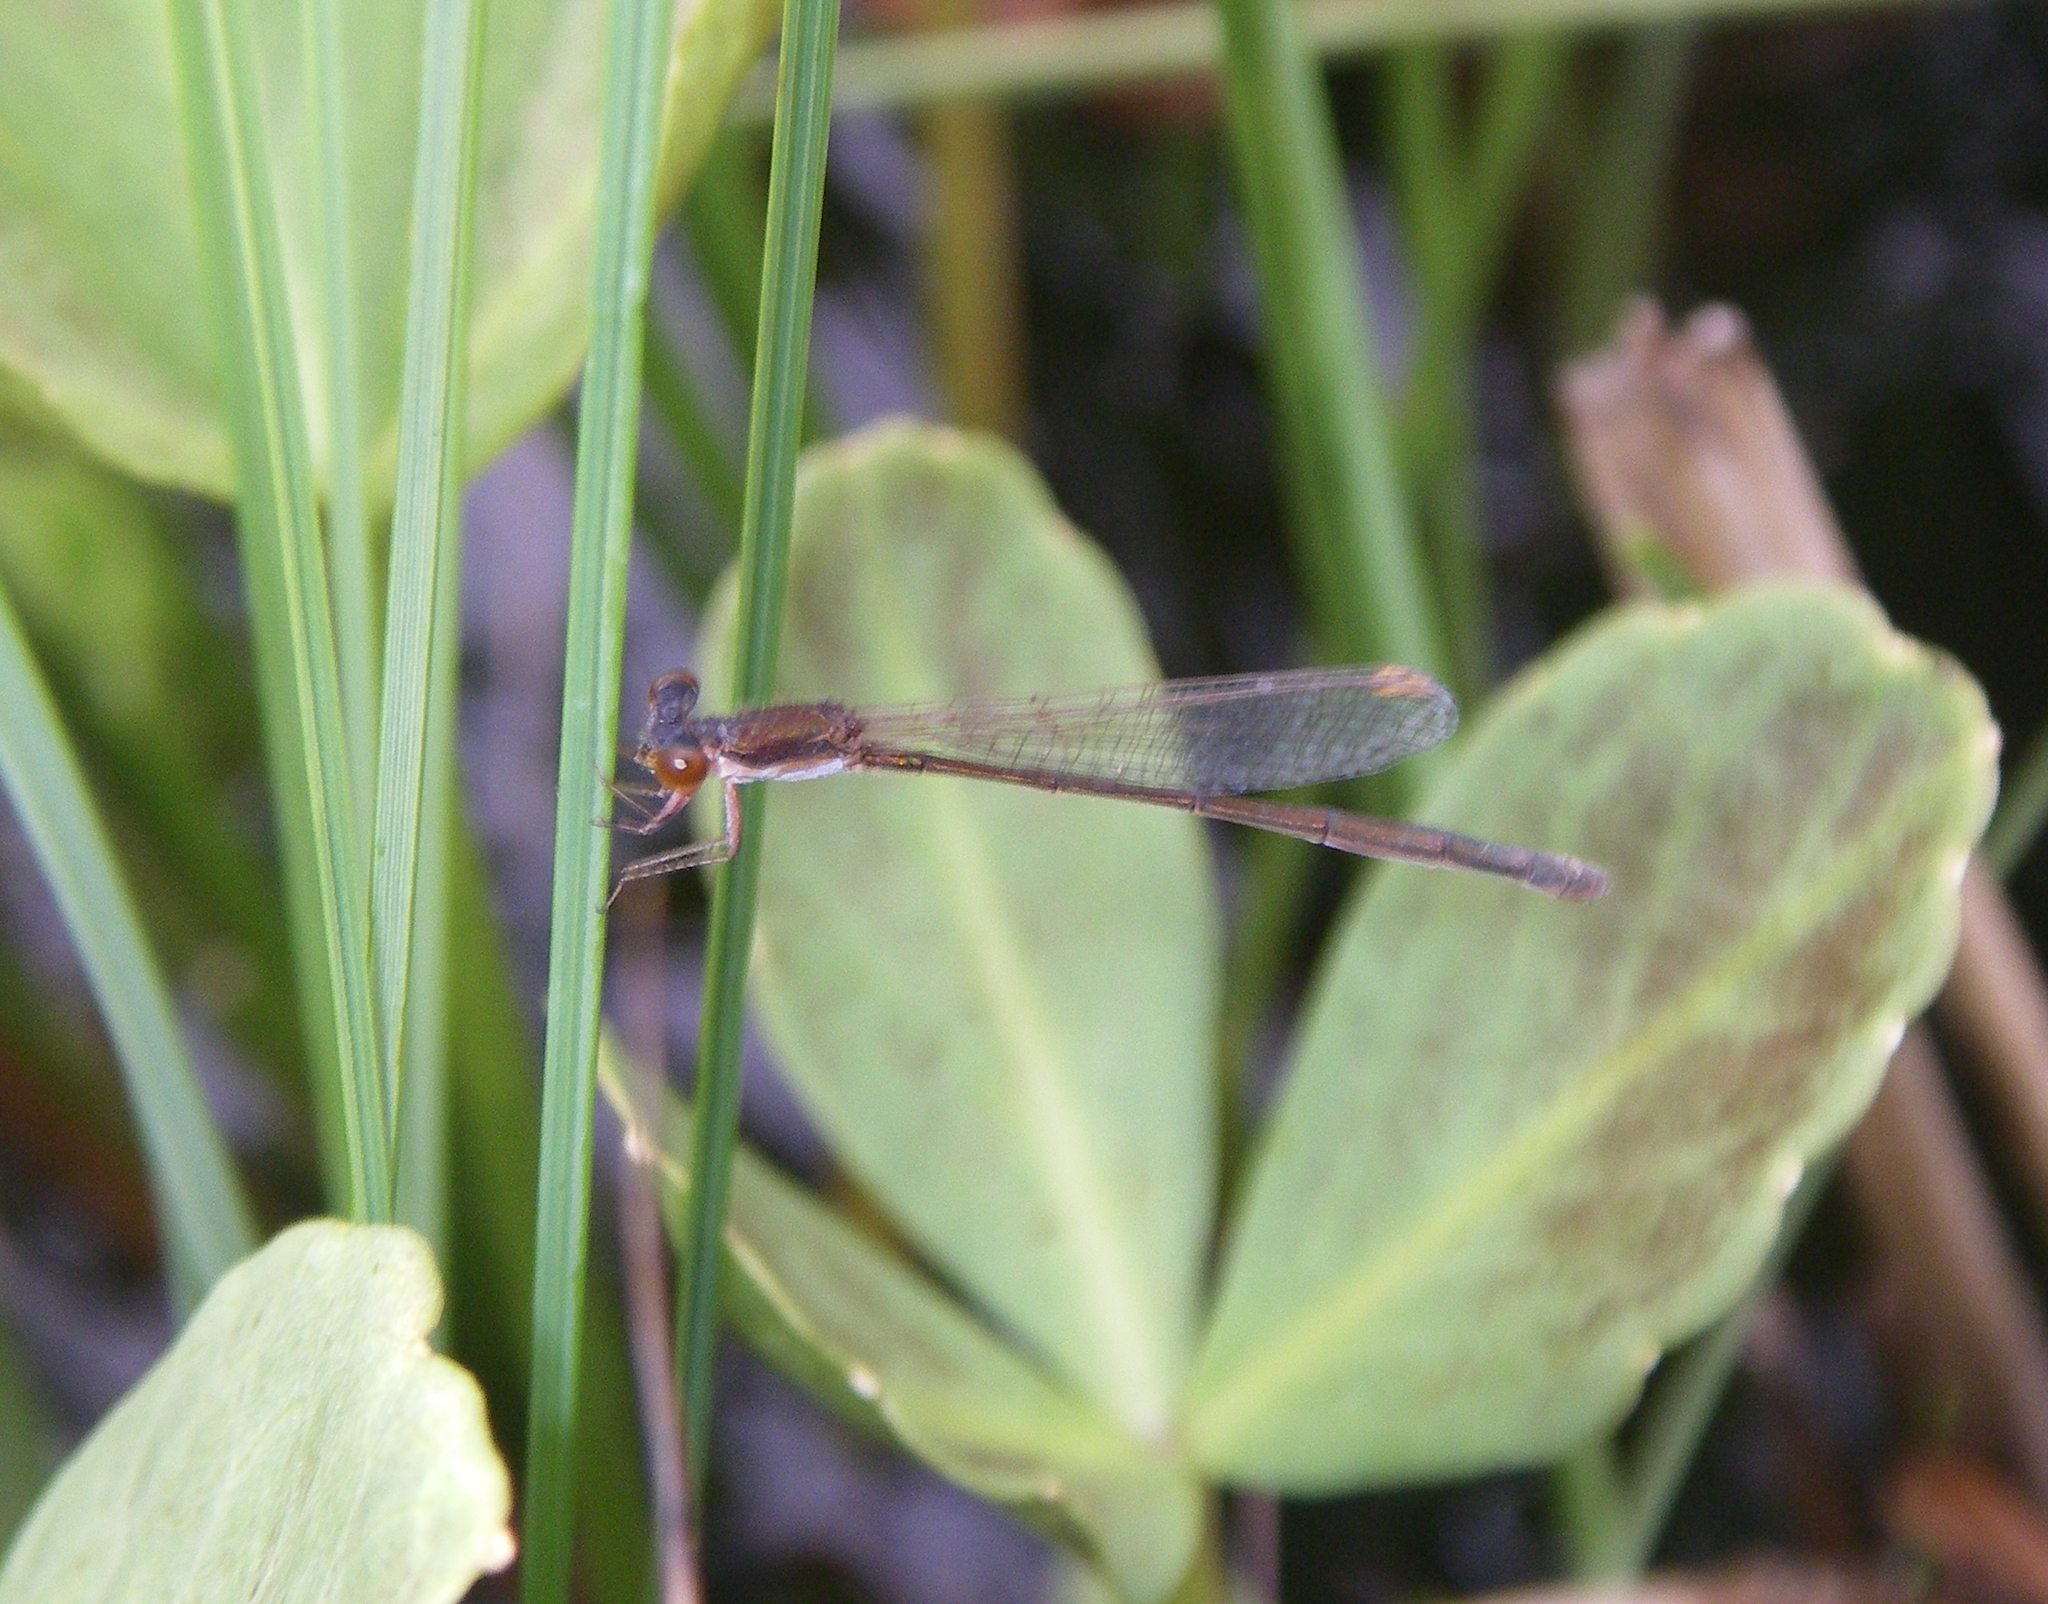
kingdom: Animalia
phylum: Arthropoda
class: Insecta
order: Odonata
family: Coenagrionidae
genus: Nehalennia
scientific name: Nehalennia speciosa
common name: Sedgling
